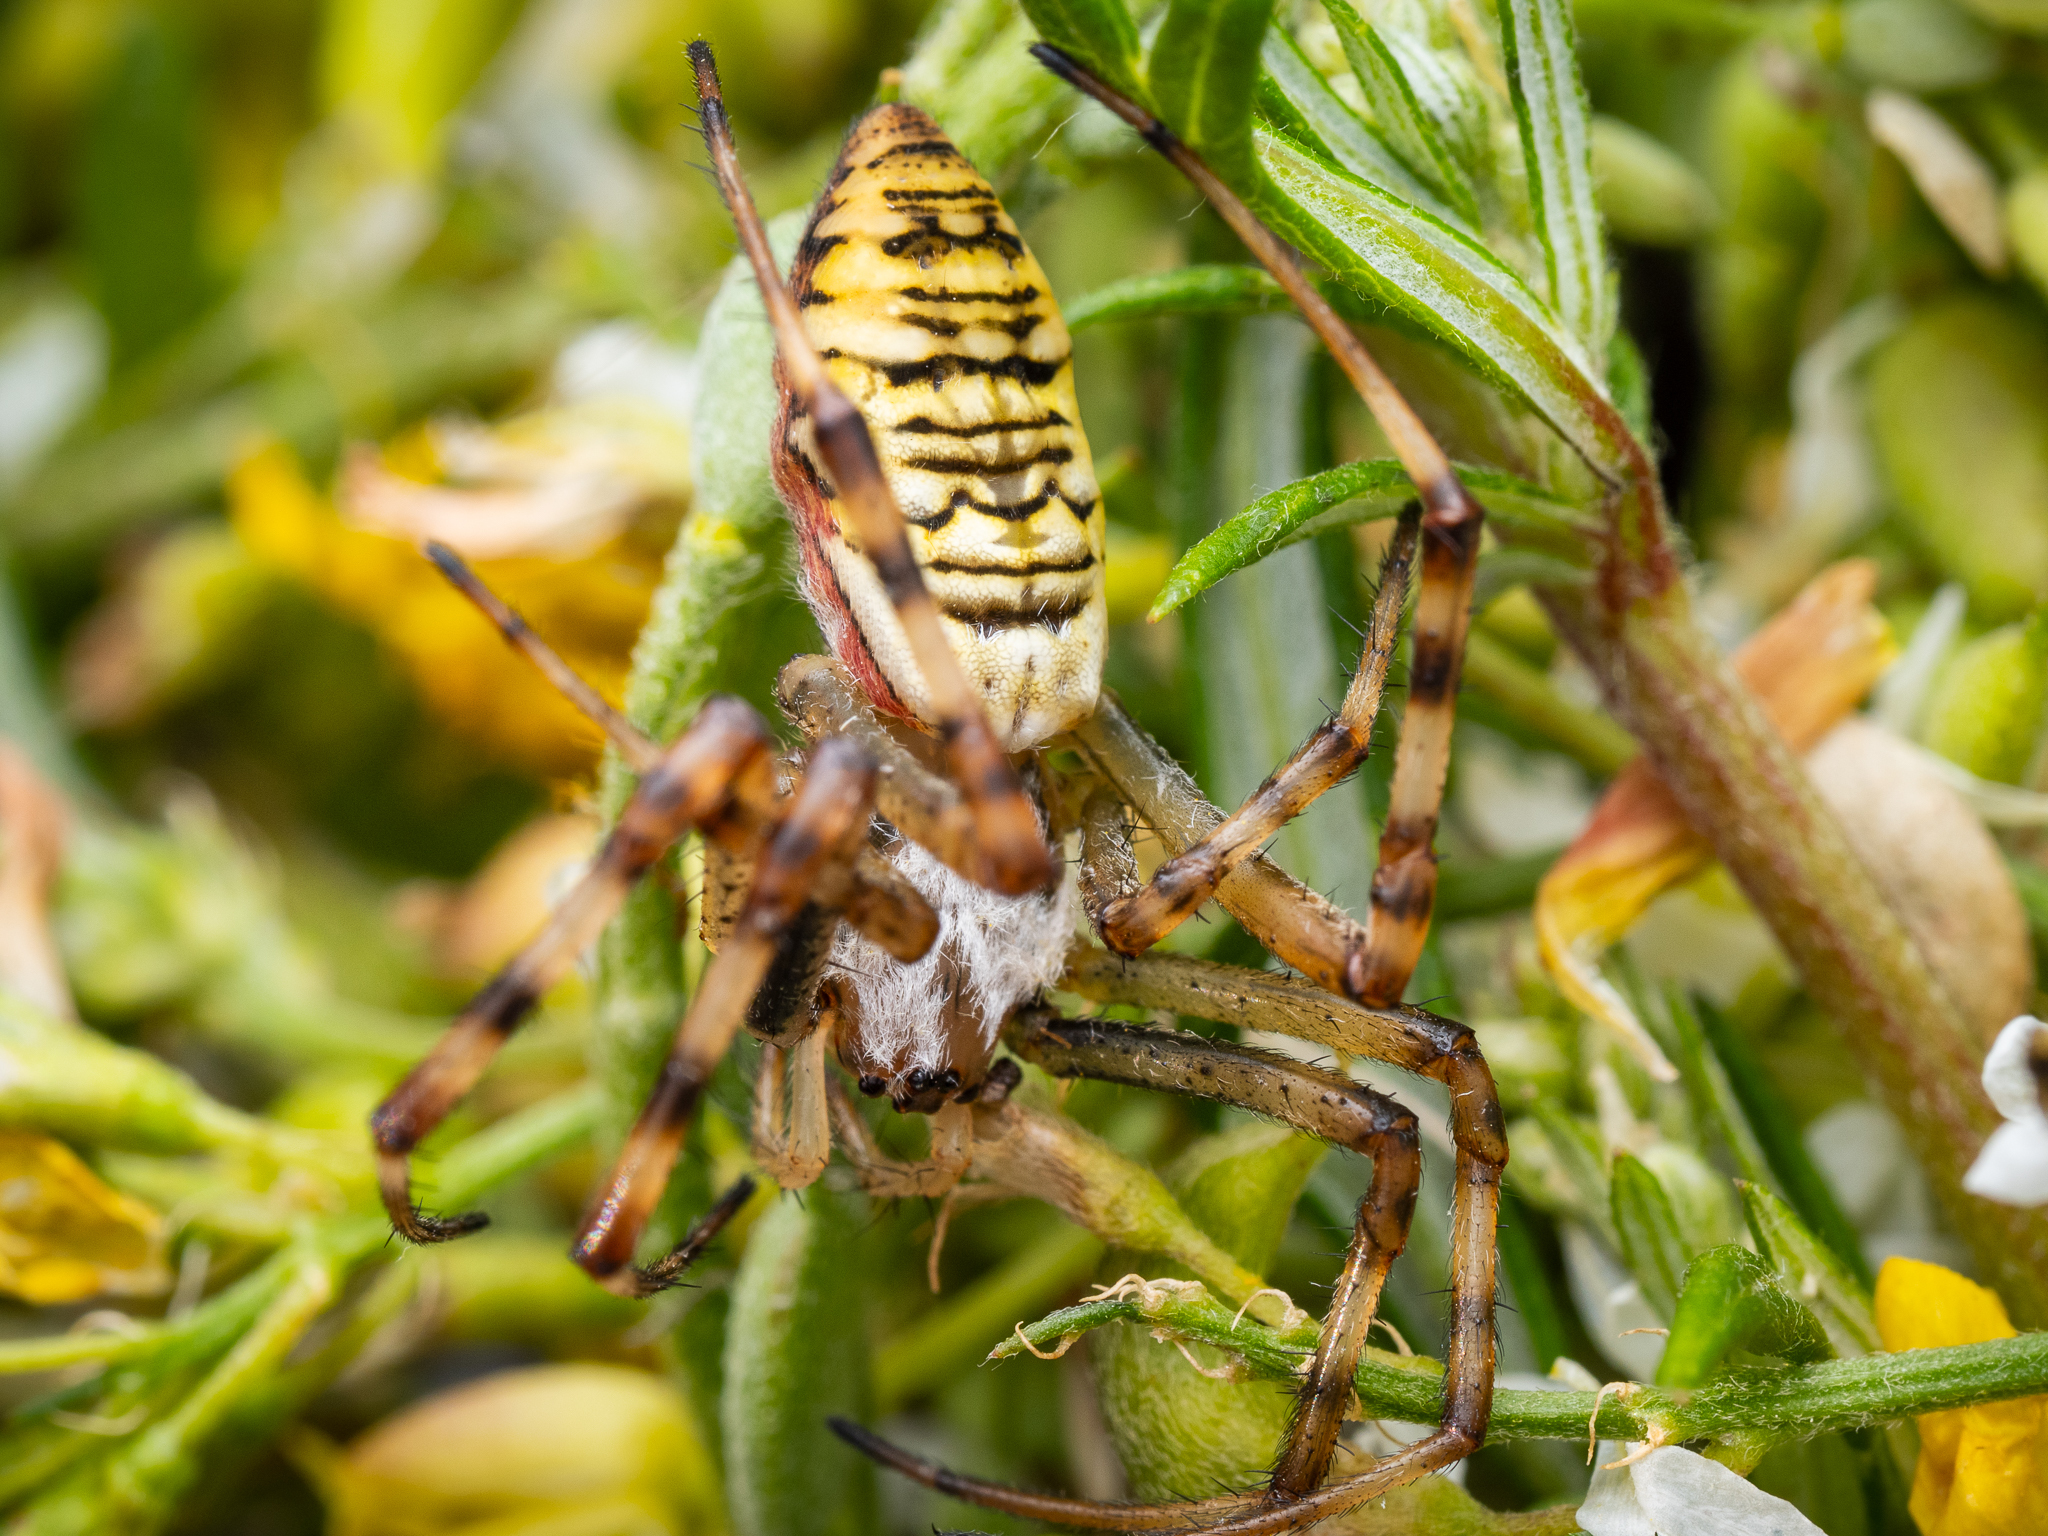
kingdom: Animalia
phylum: Arthropoda
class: Arachnida
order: Araneae
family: Araneidae
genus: Argiope
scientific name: Argiope bruennichi
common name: Wasp spider
